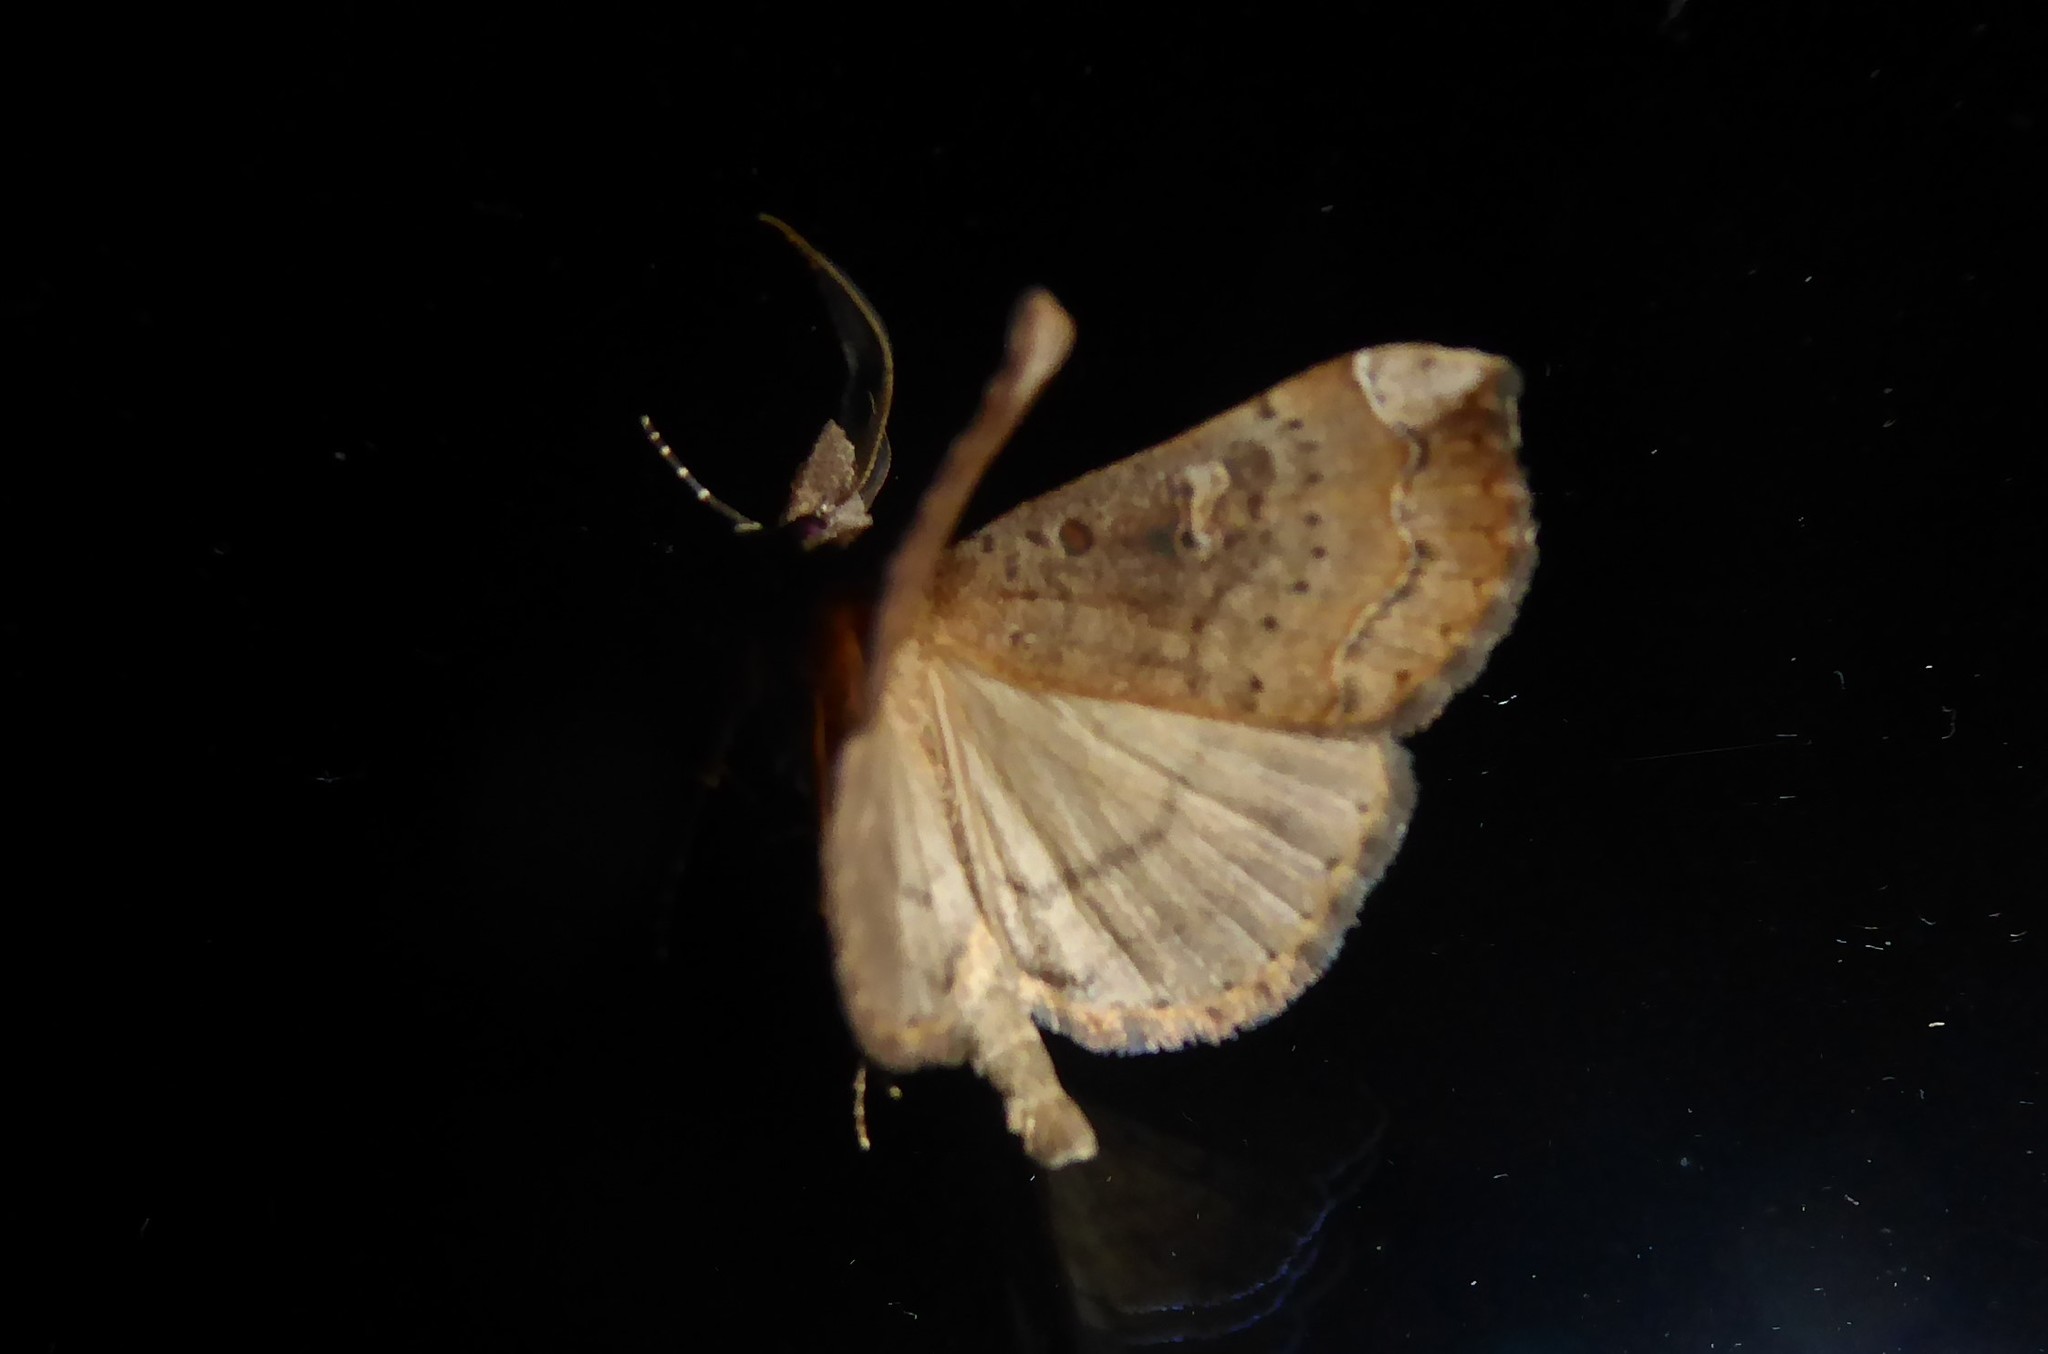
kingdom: Animalia
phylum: Arthropoda
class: Insecta
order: Lepidoptera
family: Erebidae
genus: Rhapsa
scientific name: Rhapsa scotosialis
